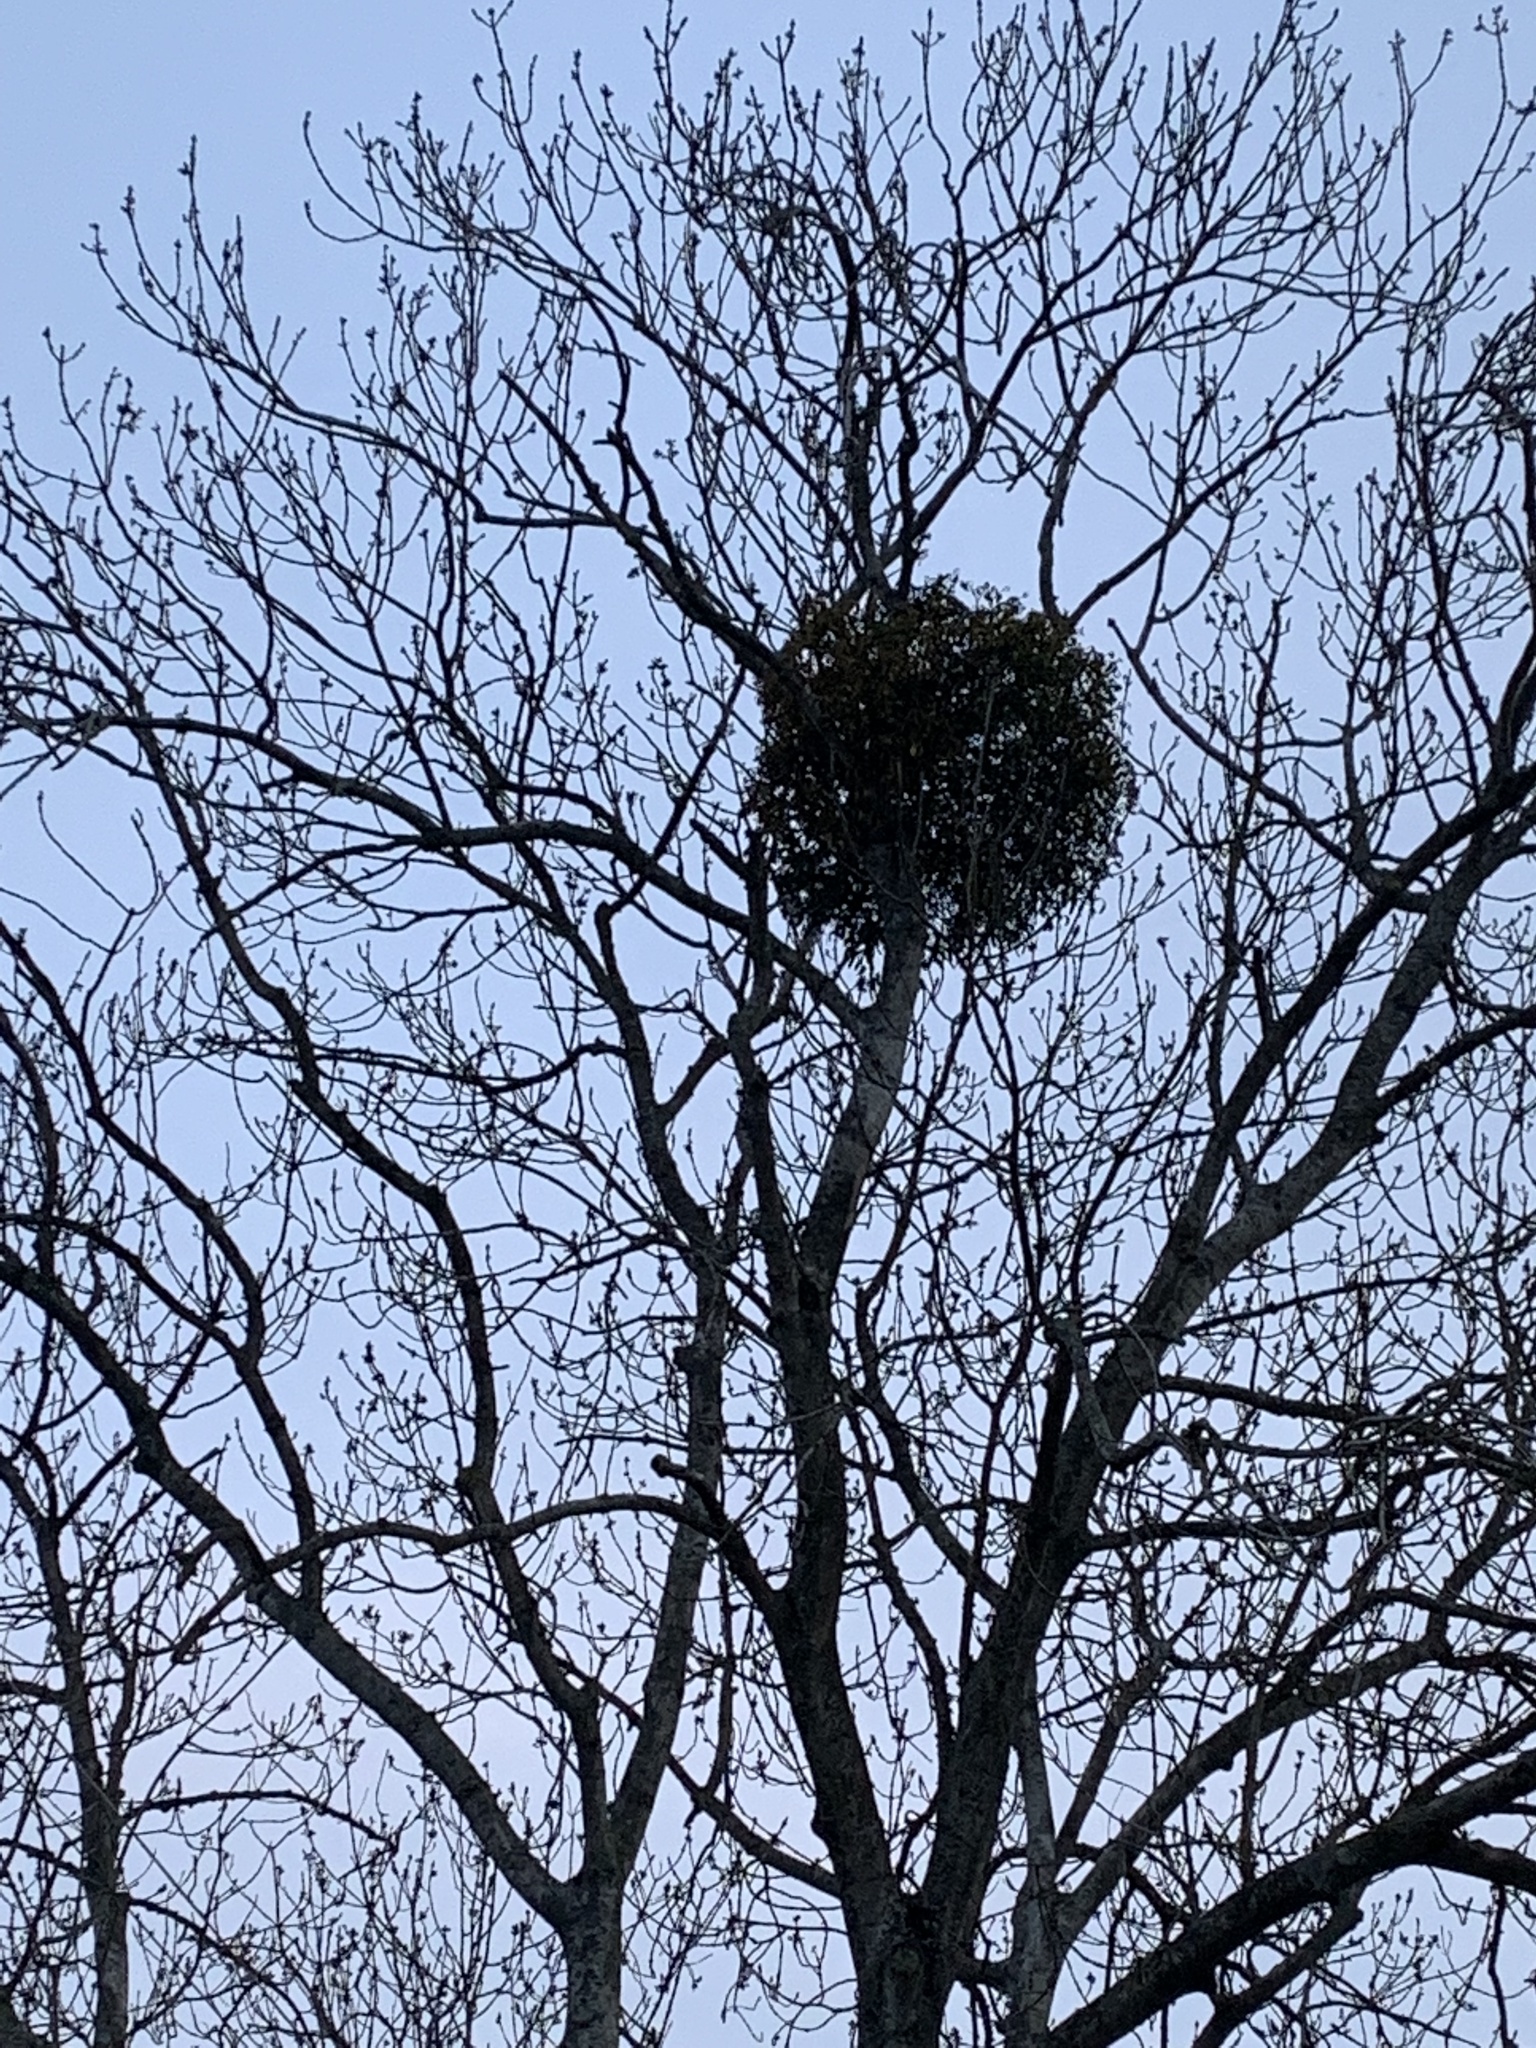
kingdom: Plantae
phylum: Tracheophyta
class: Magnoliopsida
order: Santalales
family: Viscaceae
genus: Viscum
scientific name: Viscum album
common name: Mistletoe
